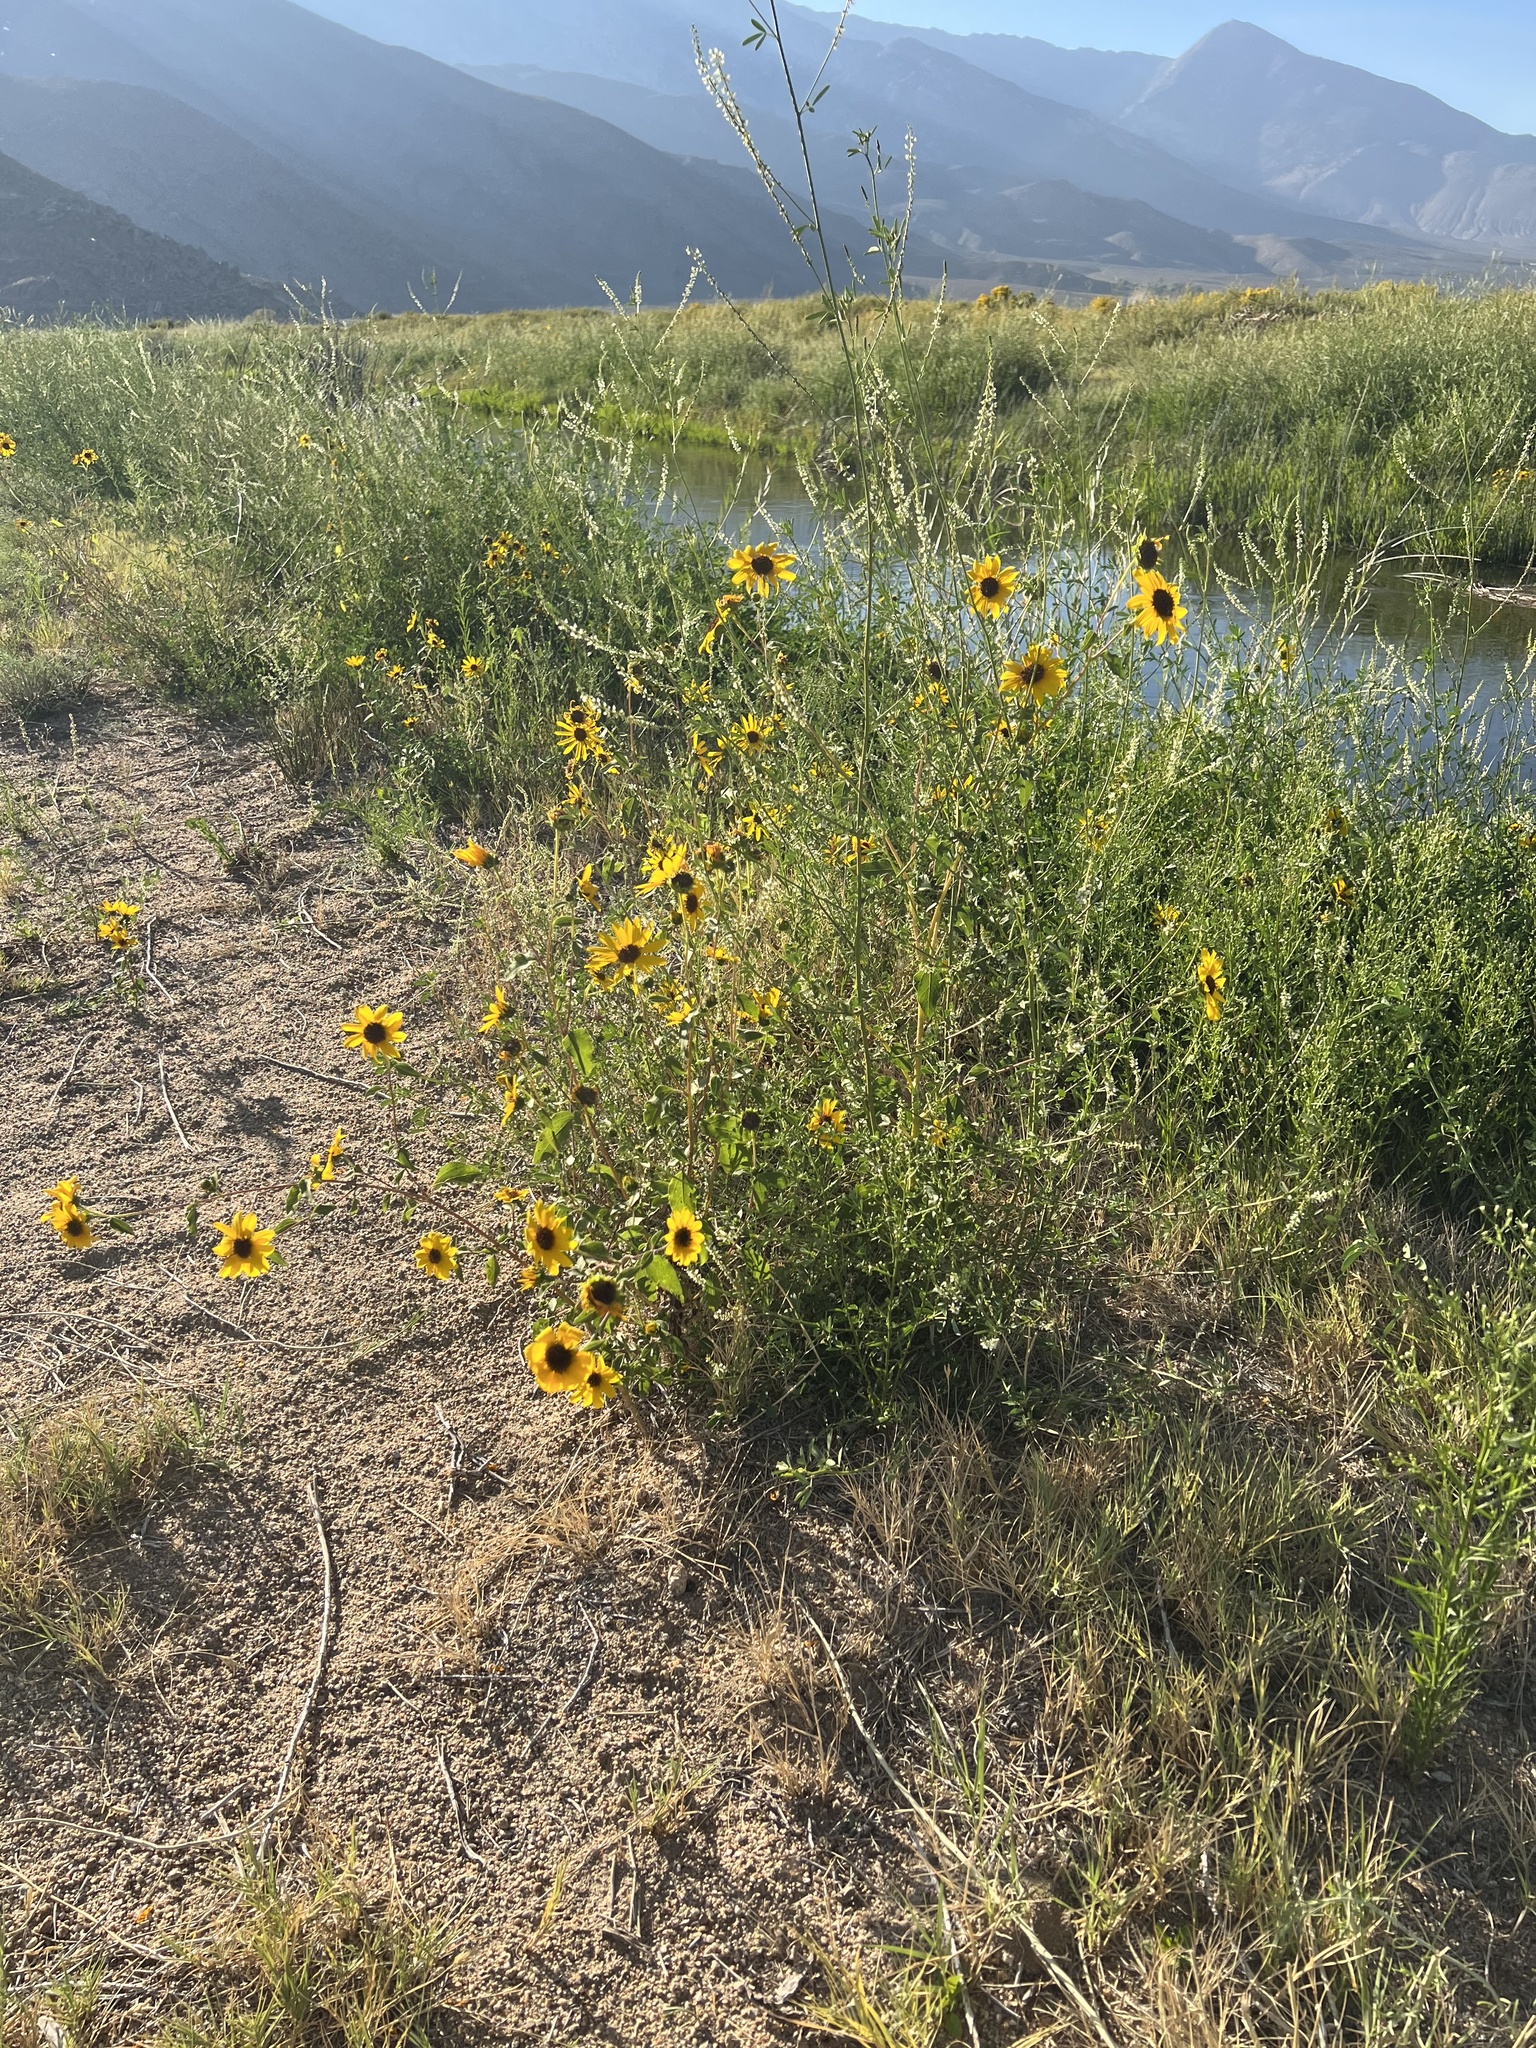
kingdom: Plantae
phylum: Tracheophyta
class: Magnoliopsida
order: Asterales
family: Asteraceae
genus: Helianthus
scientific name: Helianthus annuus
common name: Sunflower
